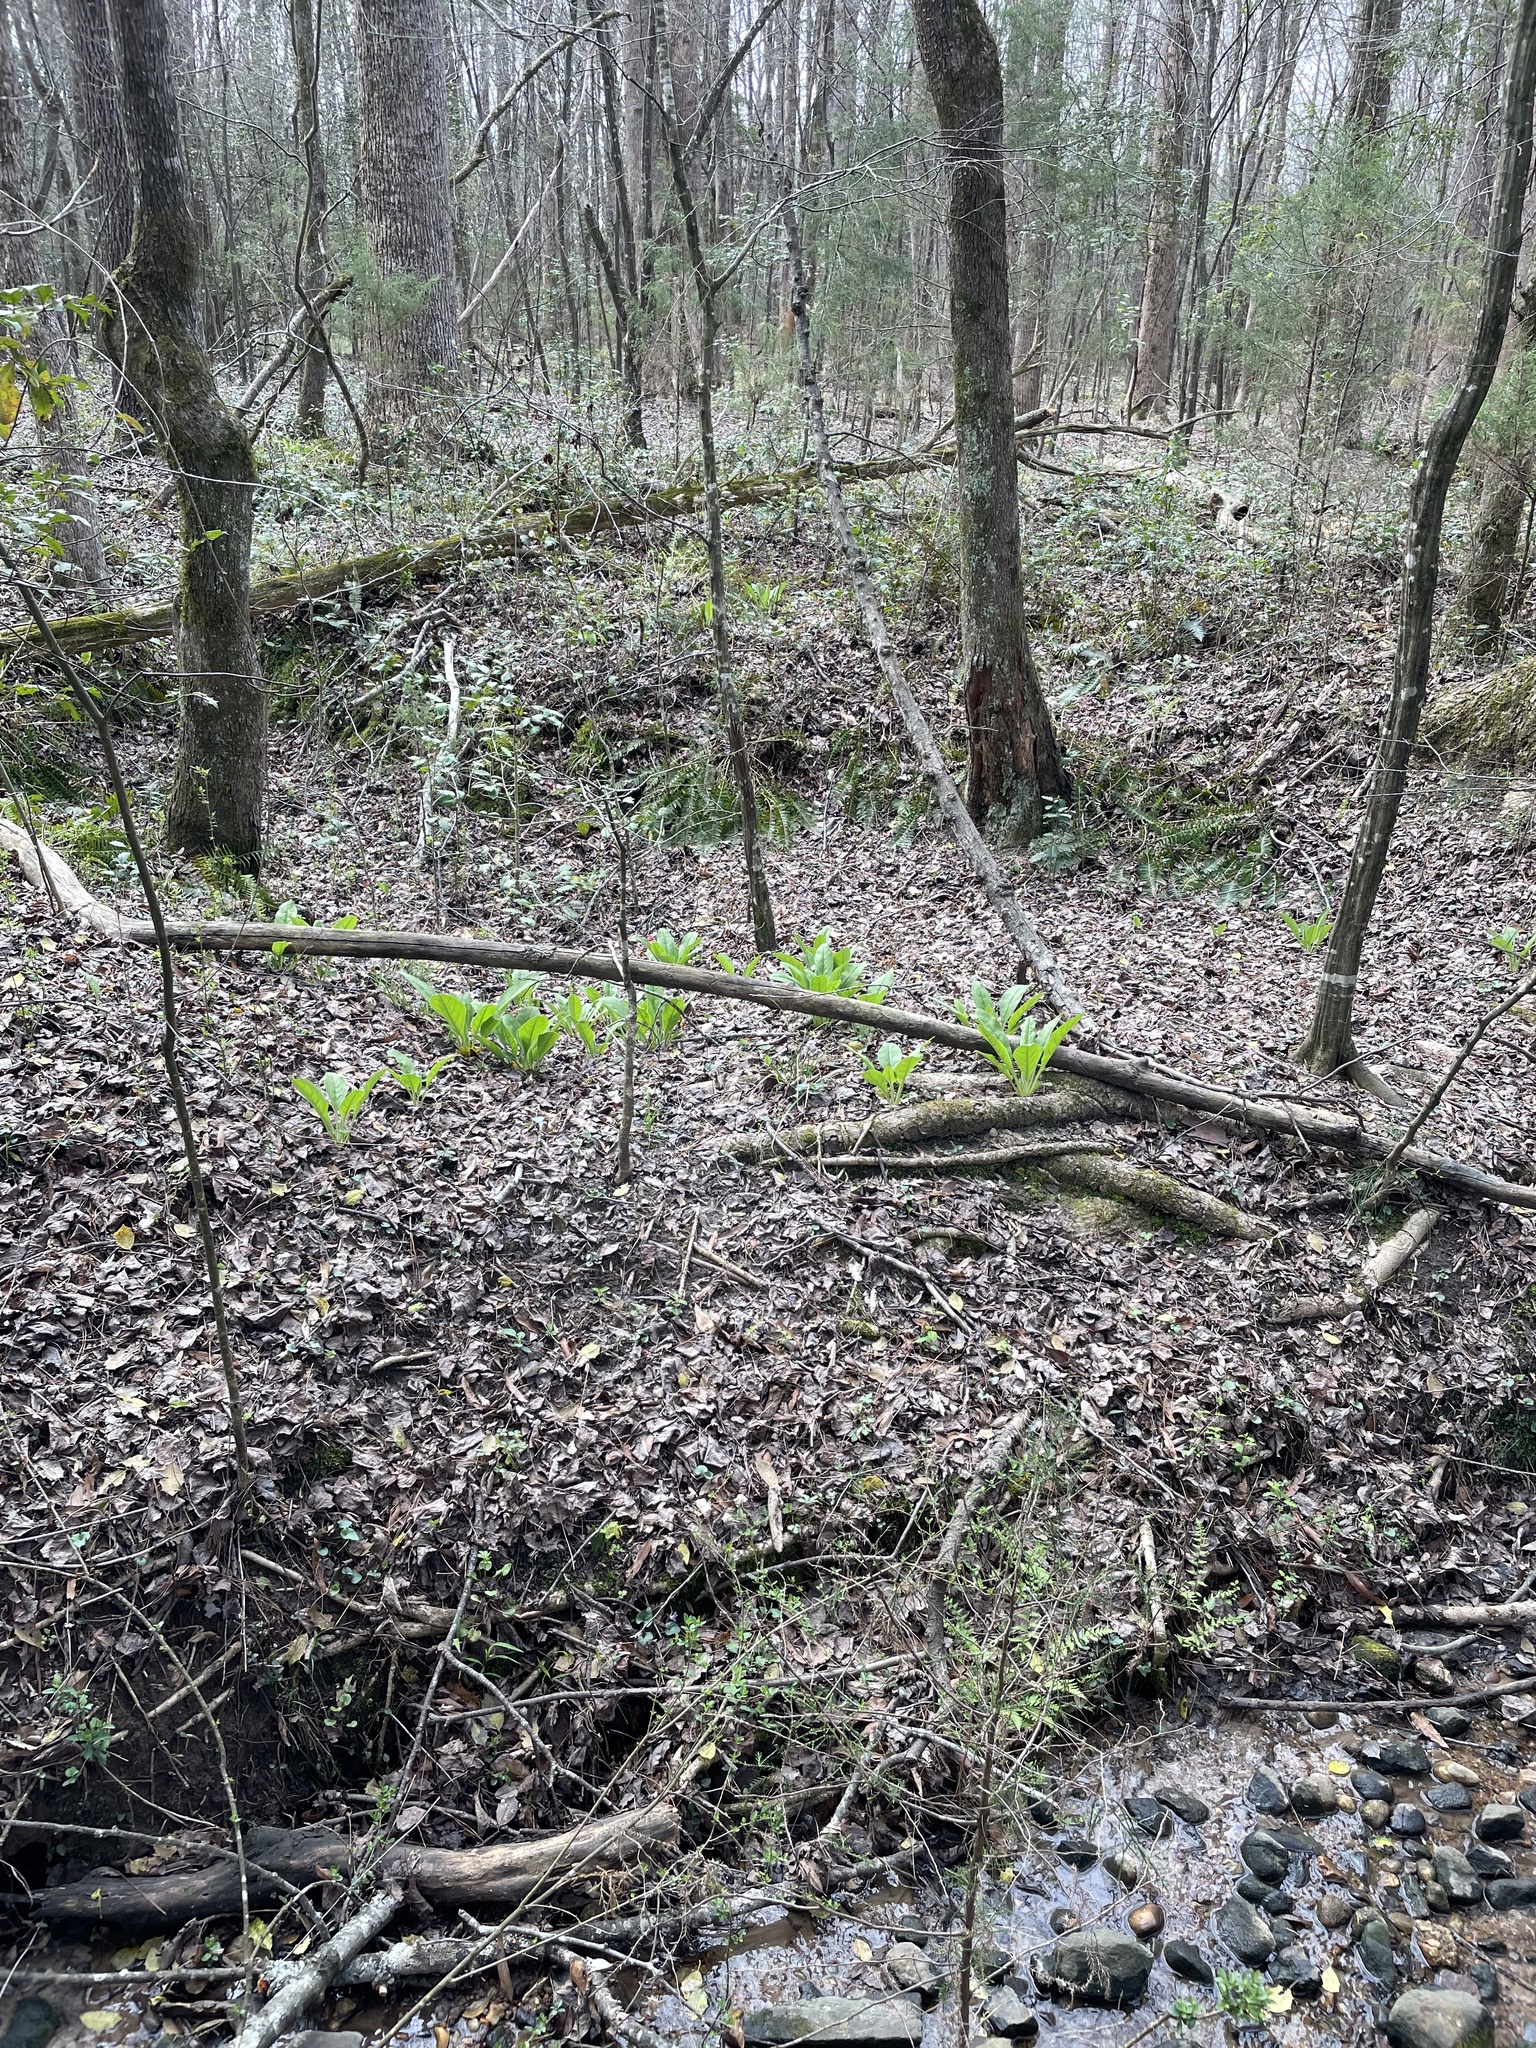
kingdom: Plantae
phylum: Tracheophyta
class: Magnoliopsida
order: Boraginales
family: Boraginaceae
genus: Andersonglossum
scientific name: Andersonglossum virginianum
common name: Wild comfrey
